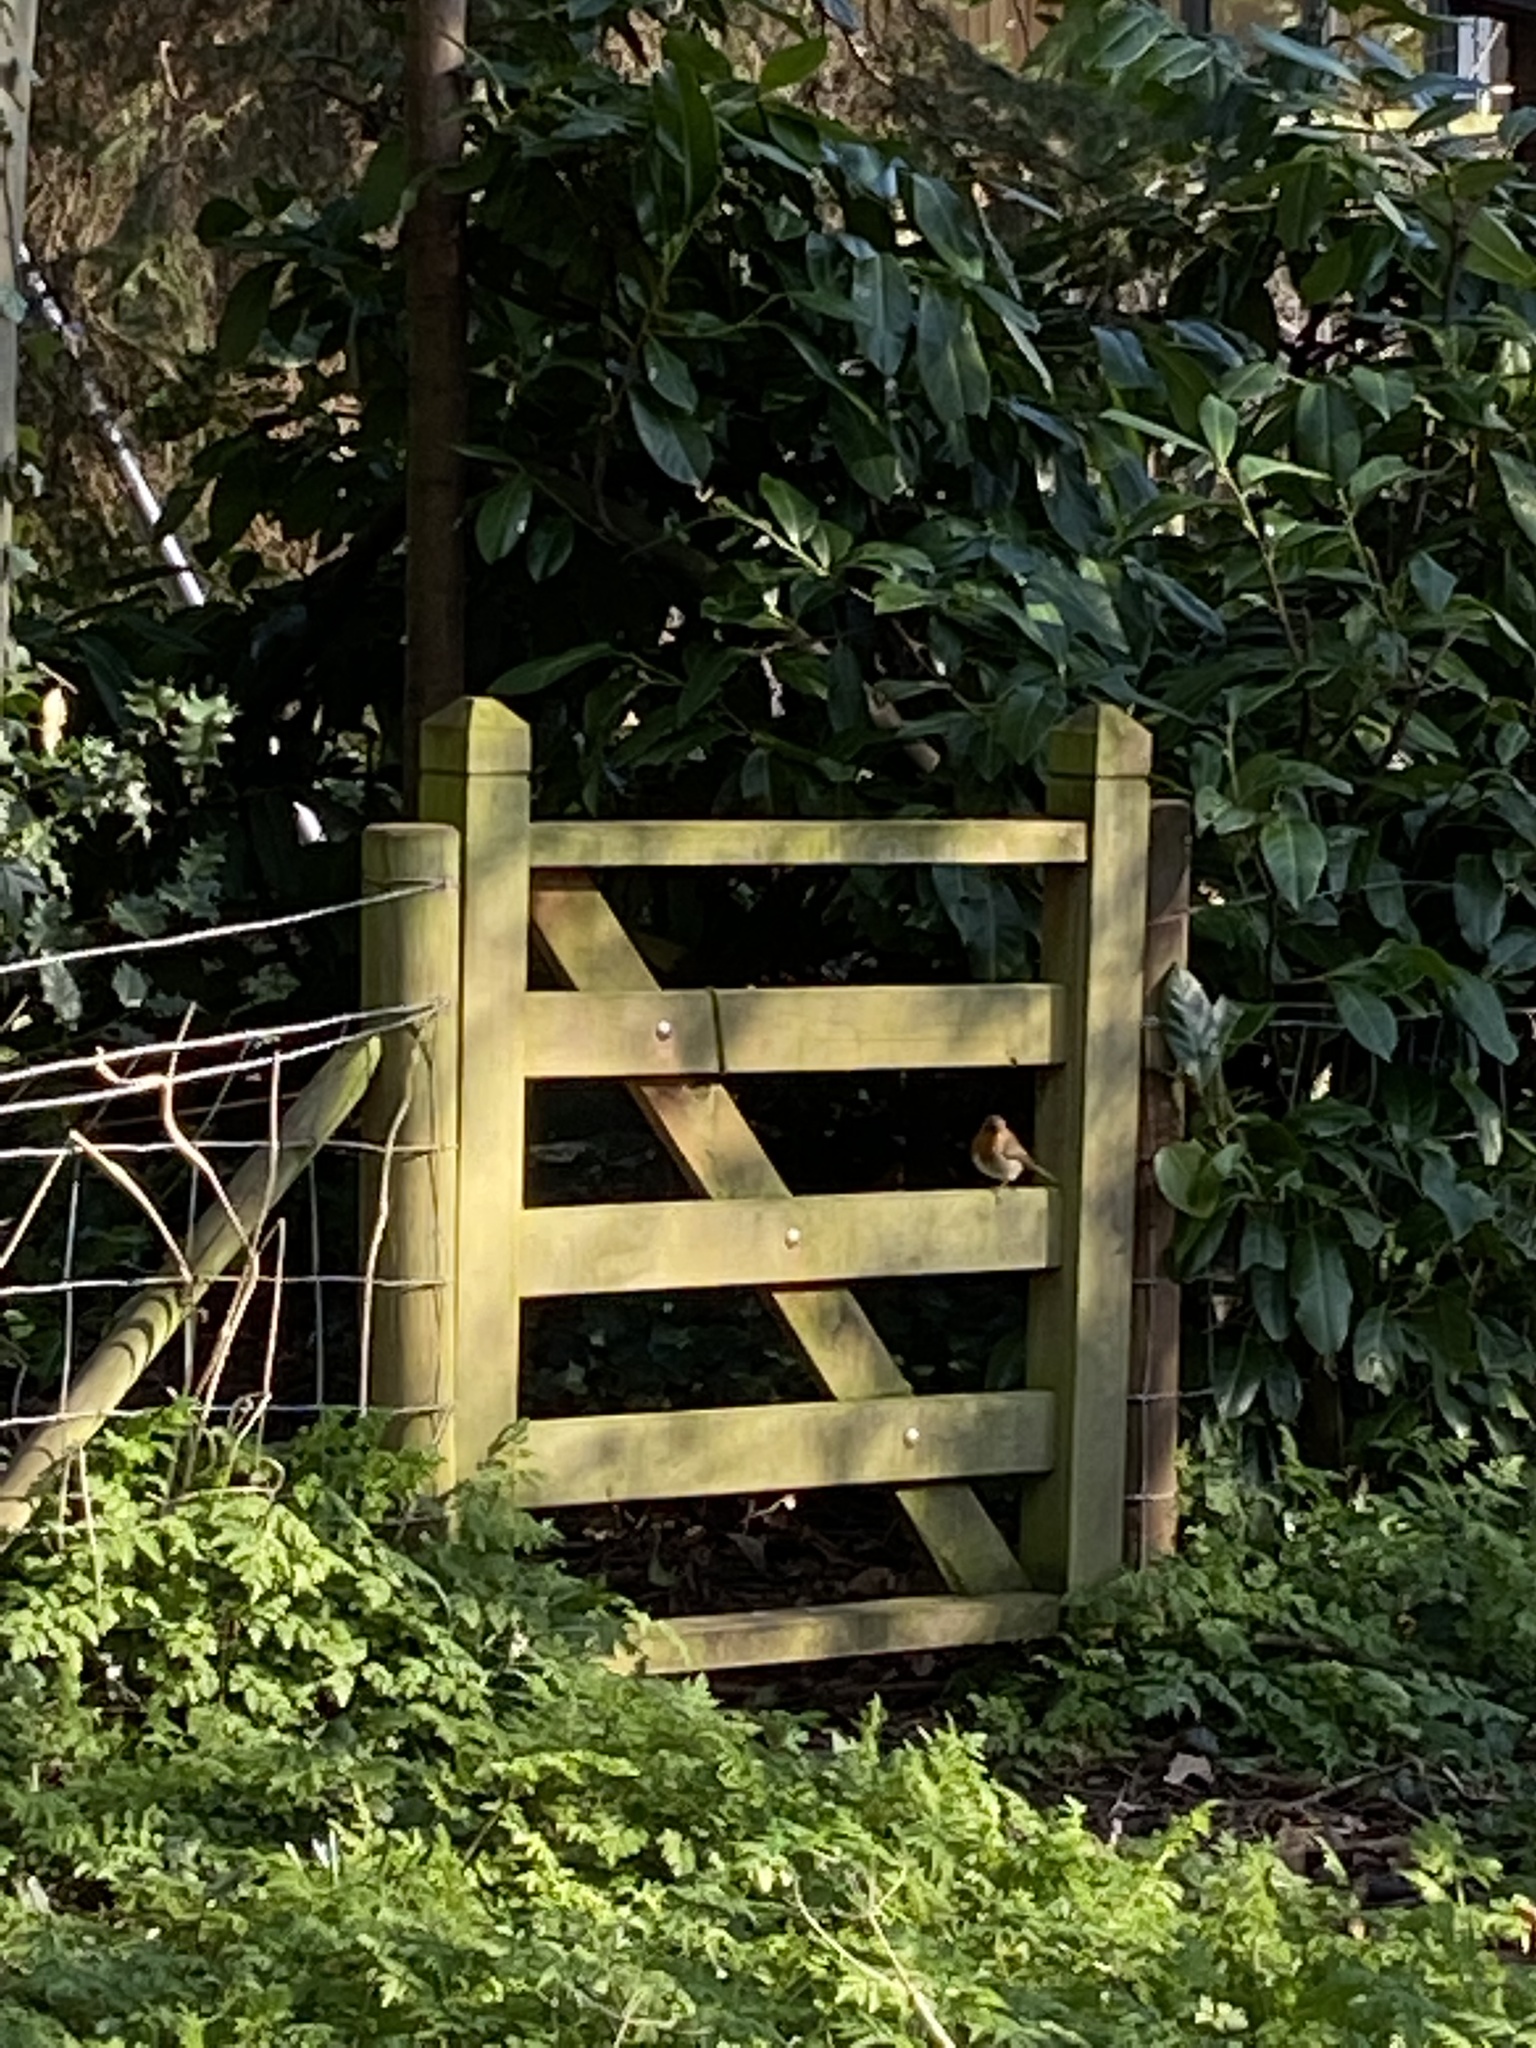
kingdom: Animalia
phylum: Chordata
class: Aves
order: Passeriformes
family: Muscicapidae
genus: Erithacus
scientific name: Erithacus rubecula
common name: European robin
